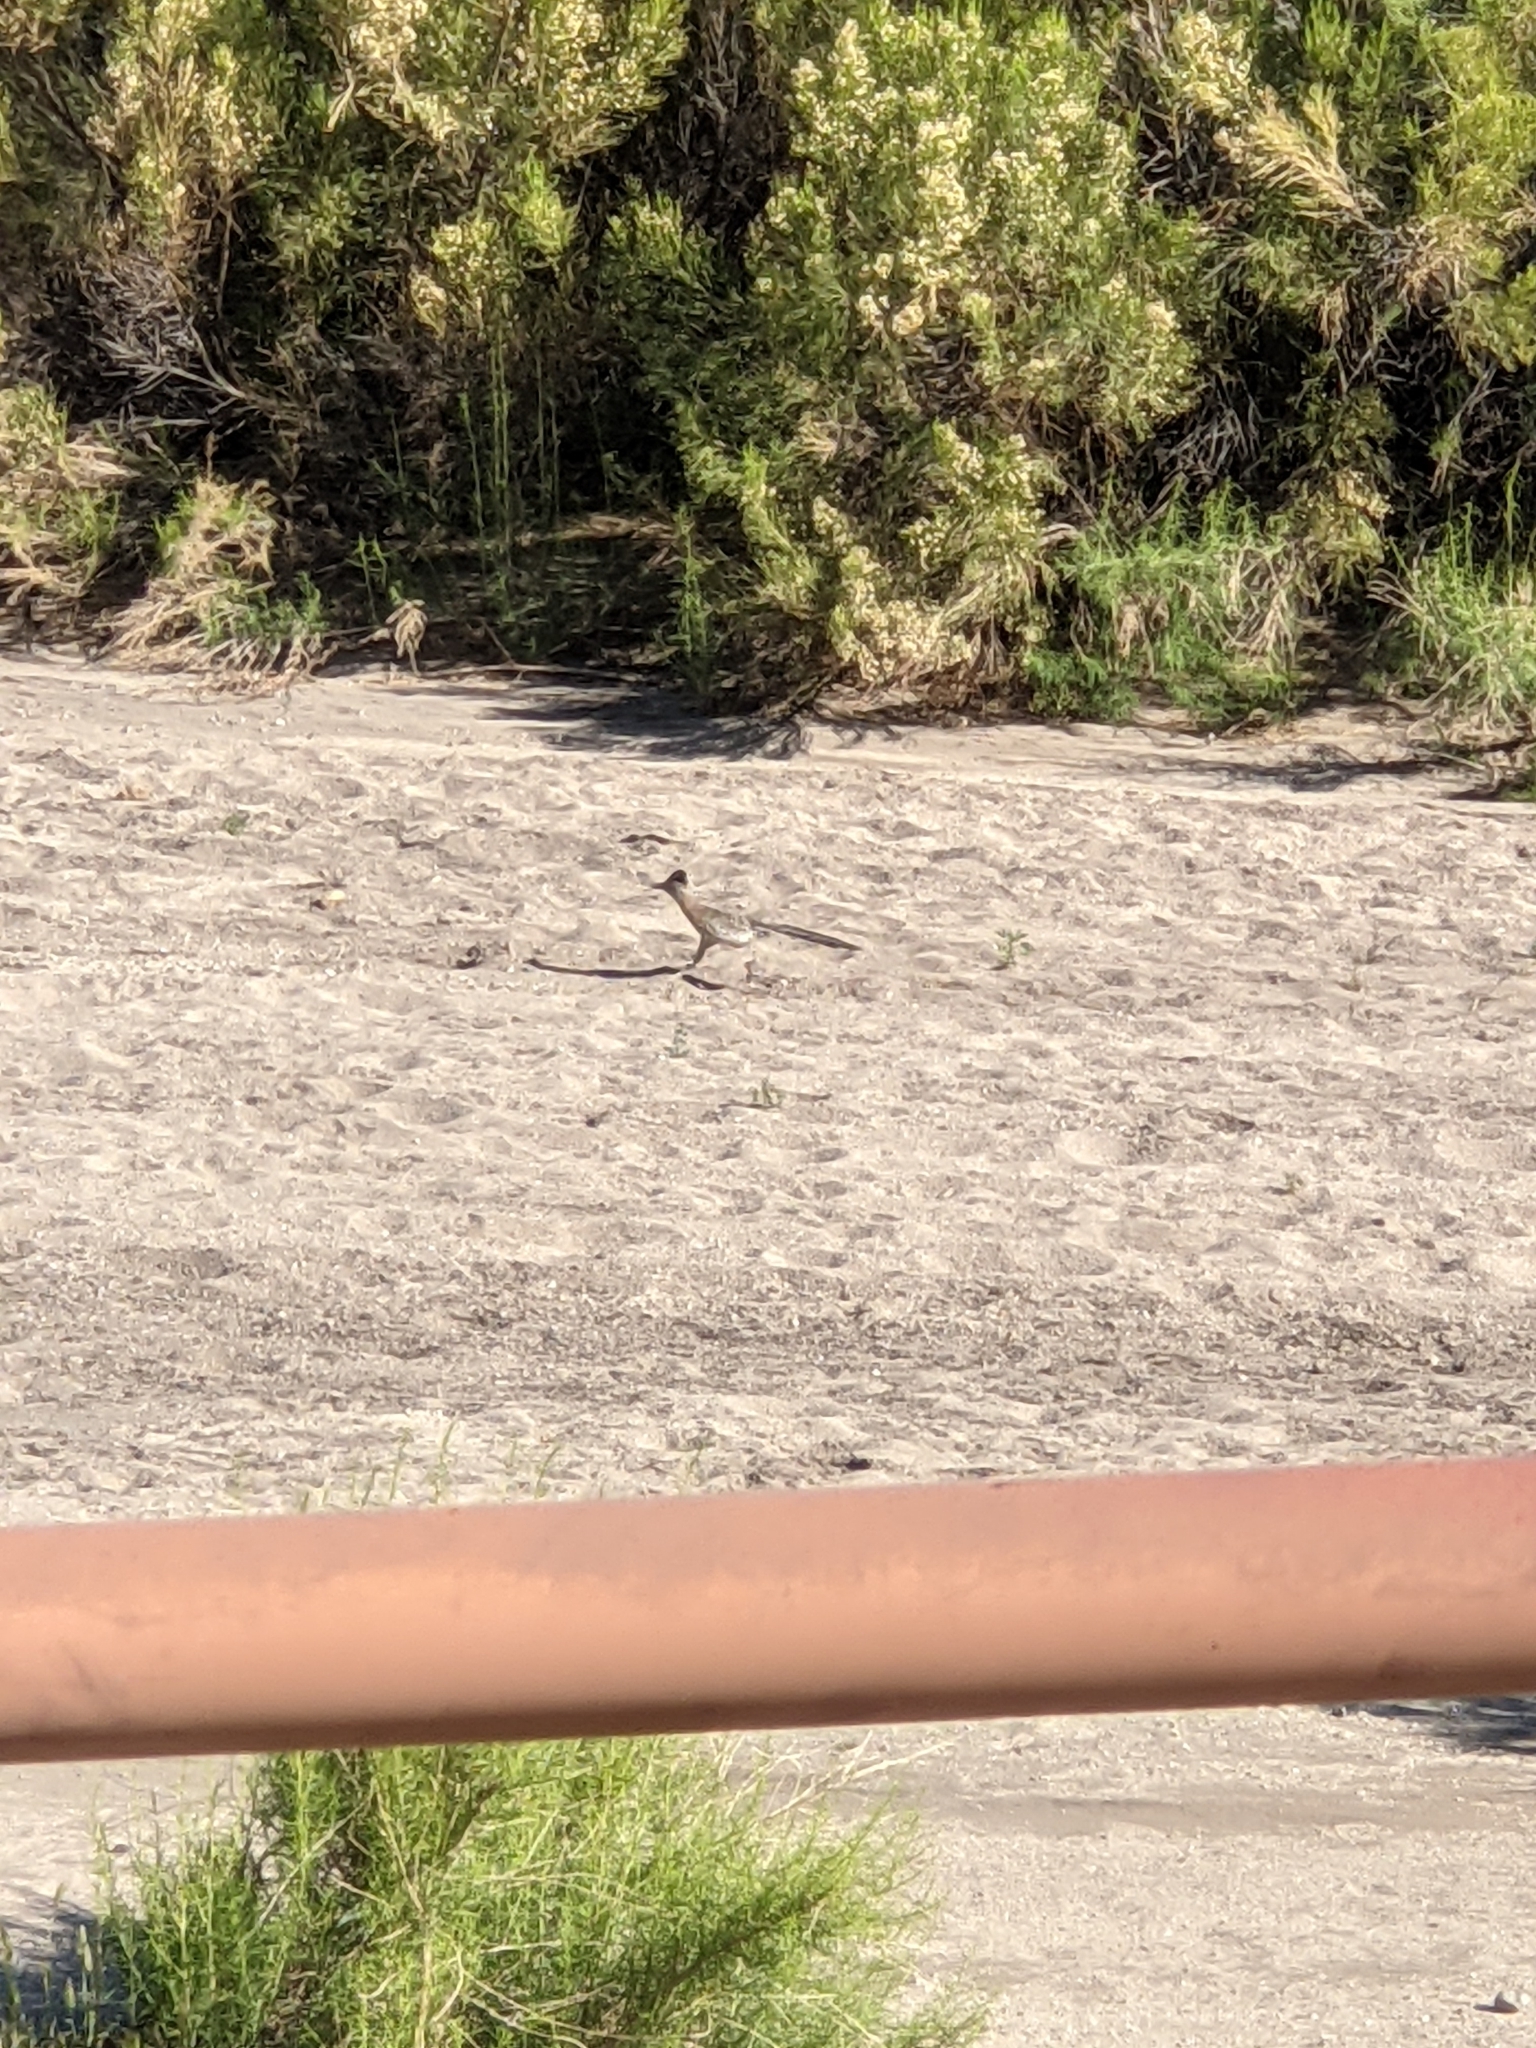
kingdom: Animalia
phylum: Chordata
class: Aves
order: Cuculiformes
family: Cuculidae
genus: Geococcyx
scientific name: Geococcyx californianus
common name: Greater roadrunner
